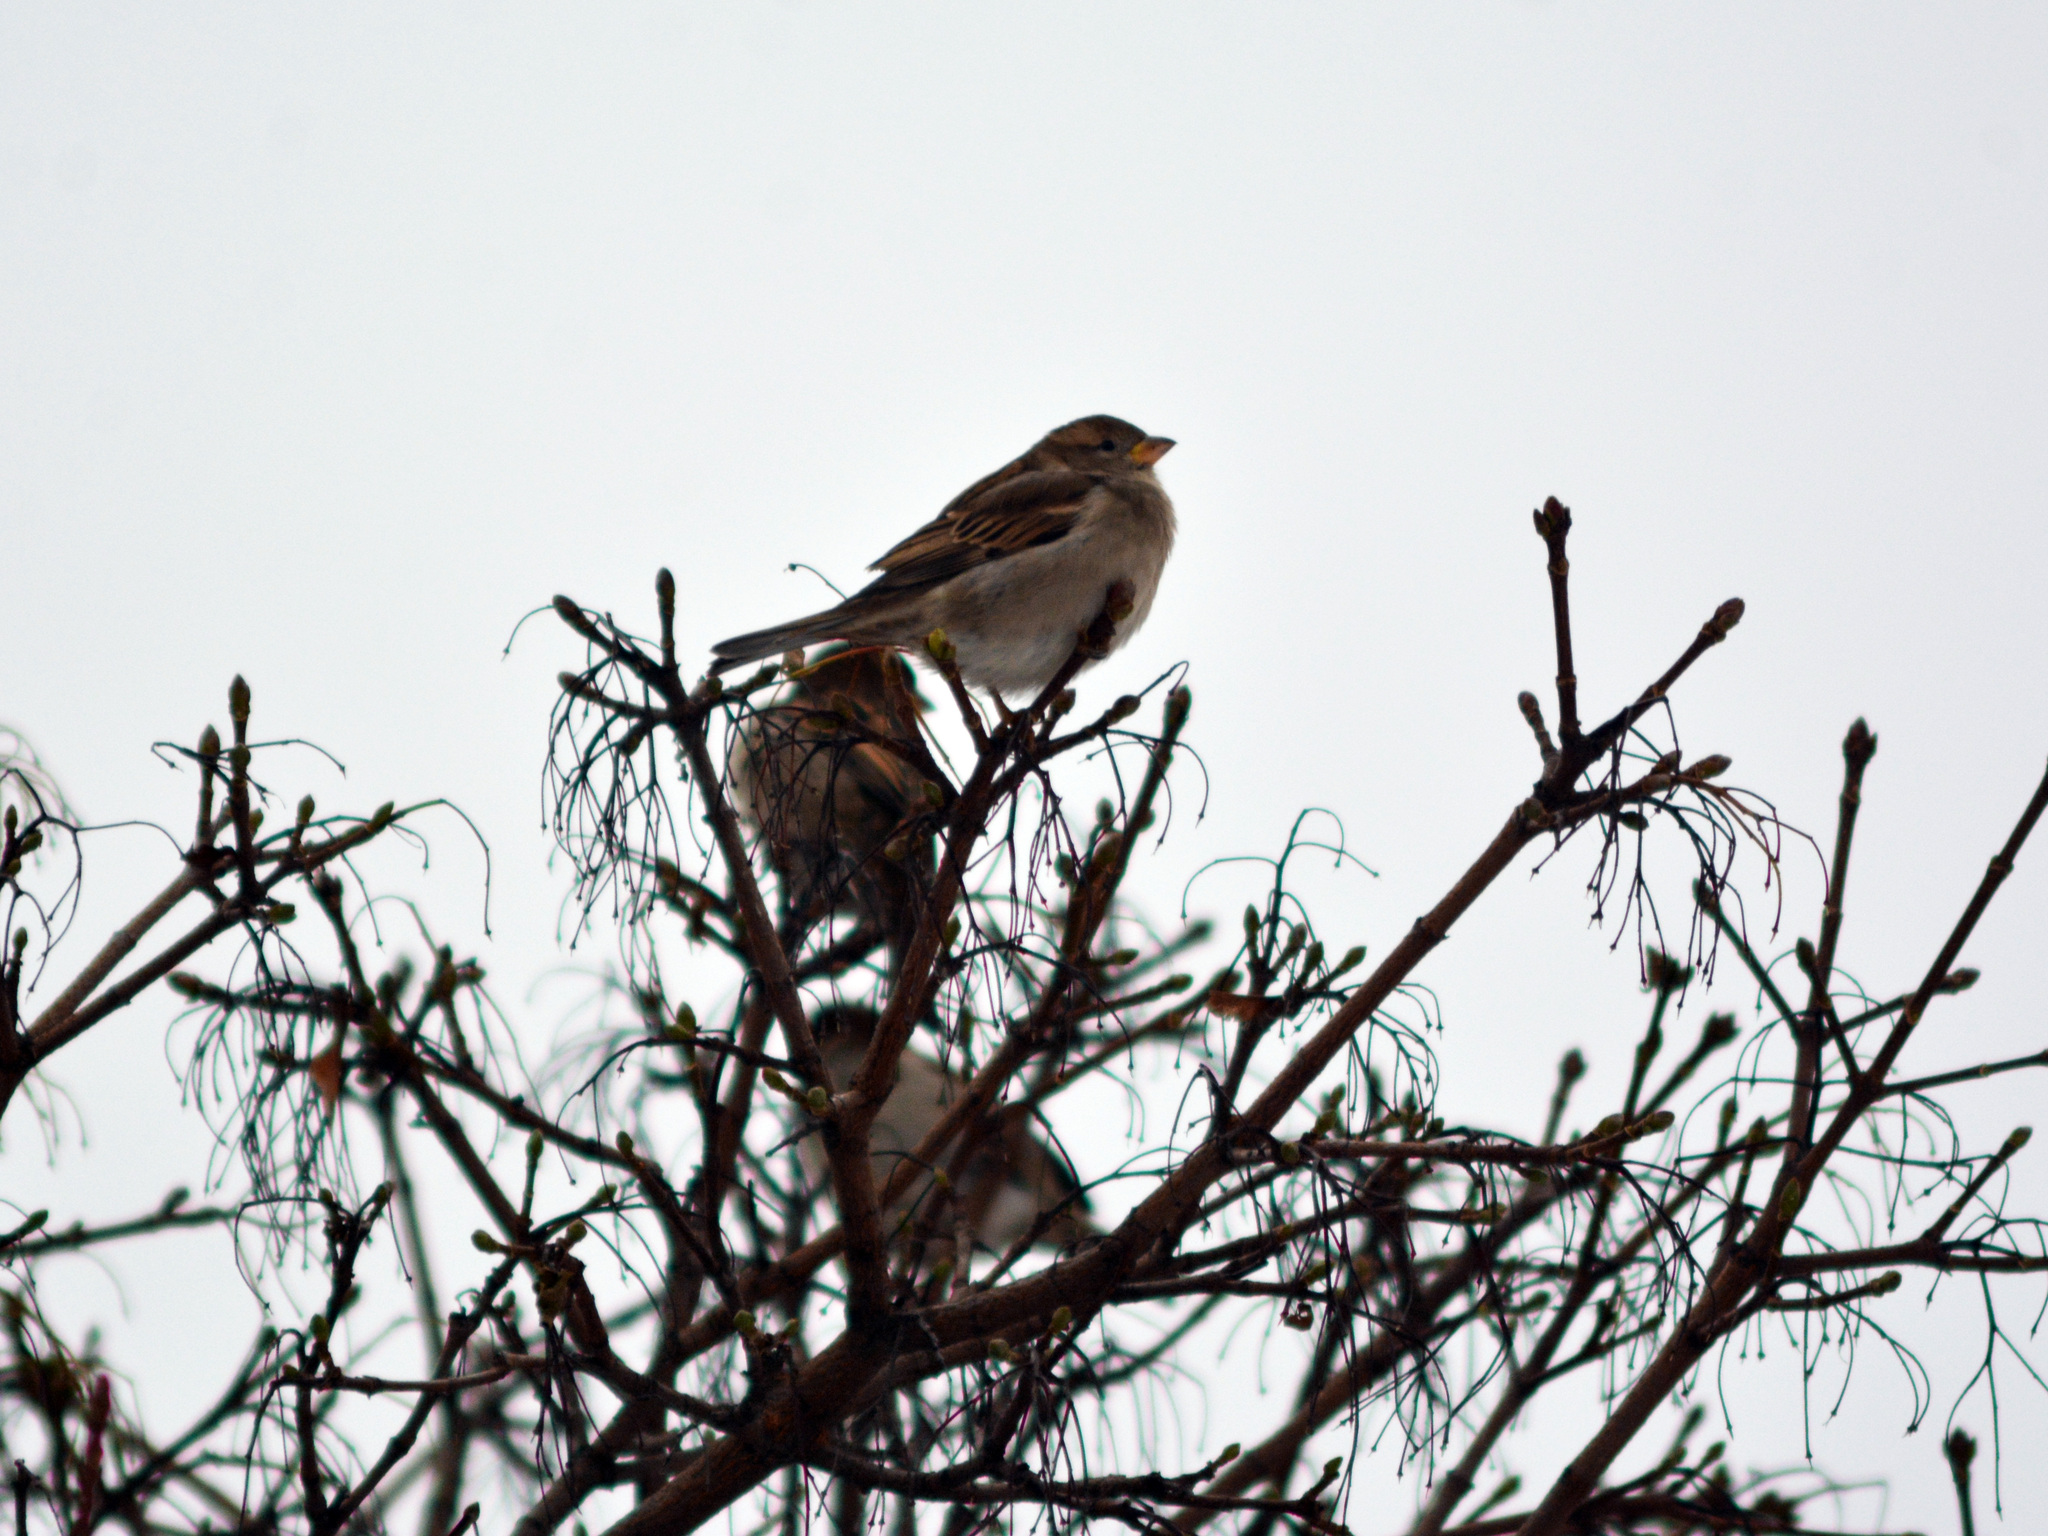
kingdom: Animalia
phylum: Chordata
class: Aves
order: Passeriformes
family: Passeridae
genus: Passer
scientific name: Passer domesticus
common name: House sparrow
